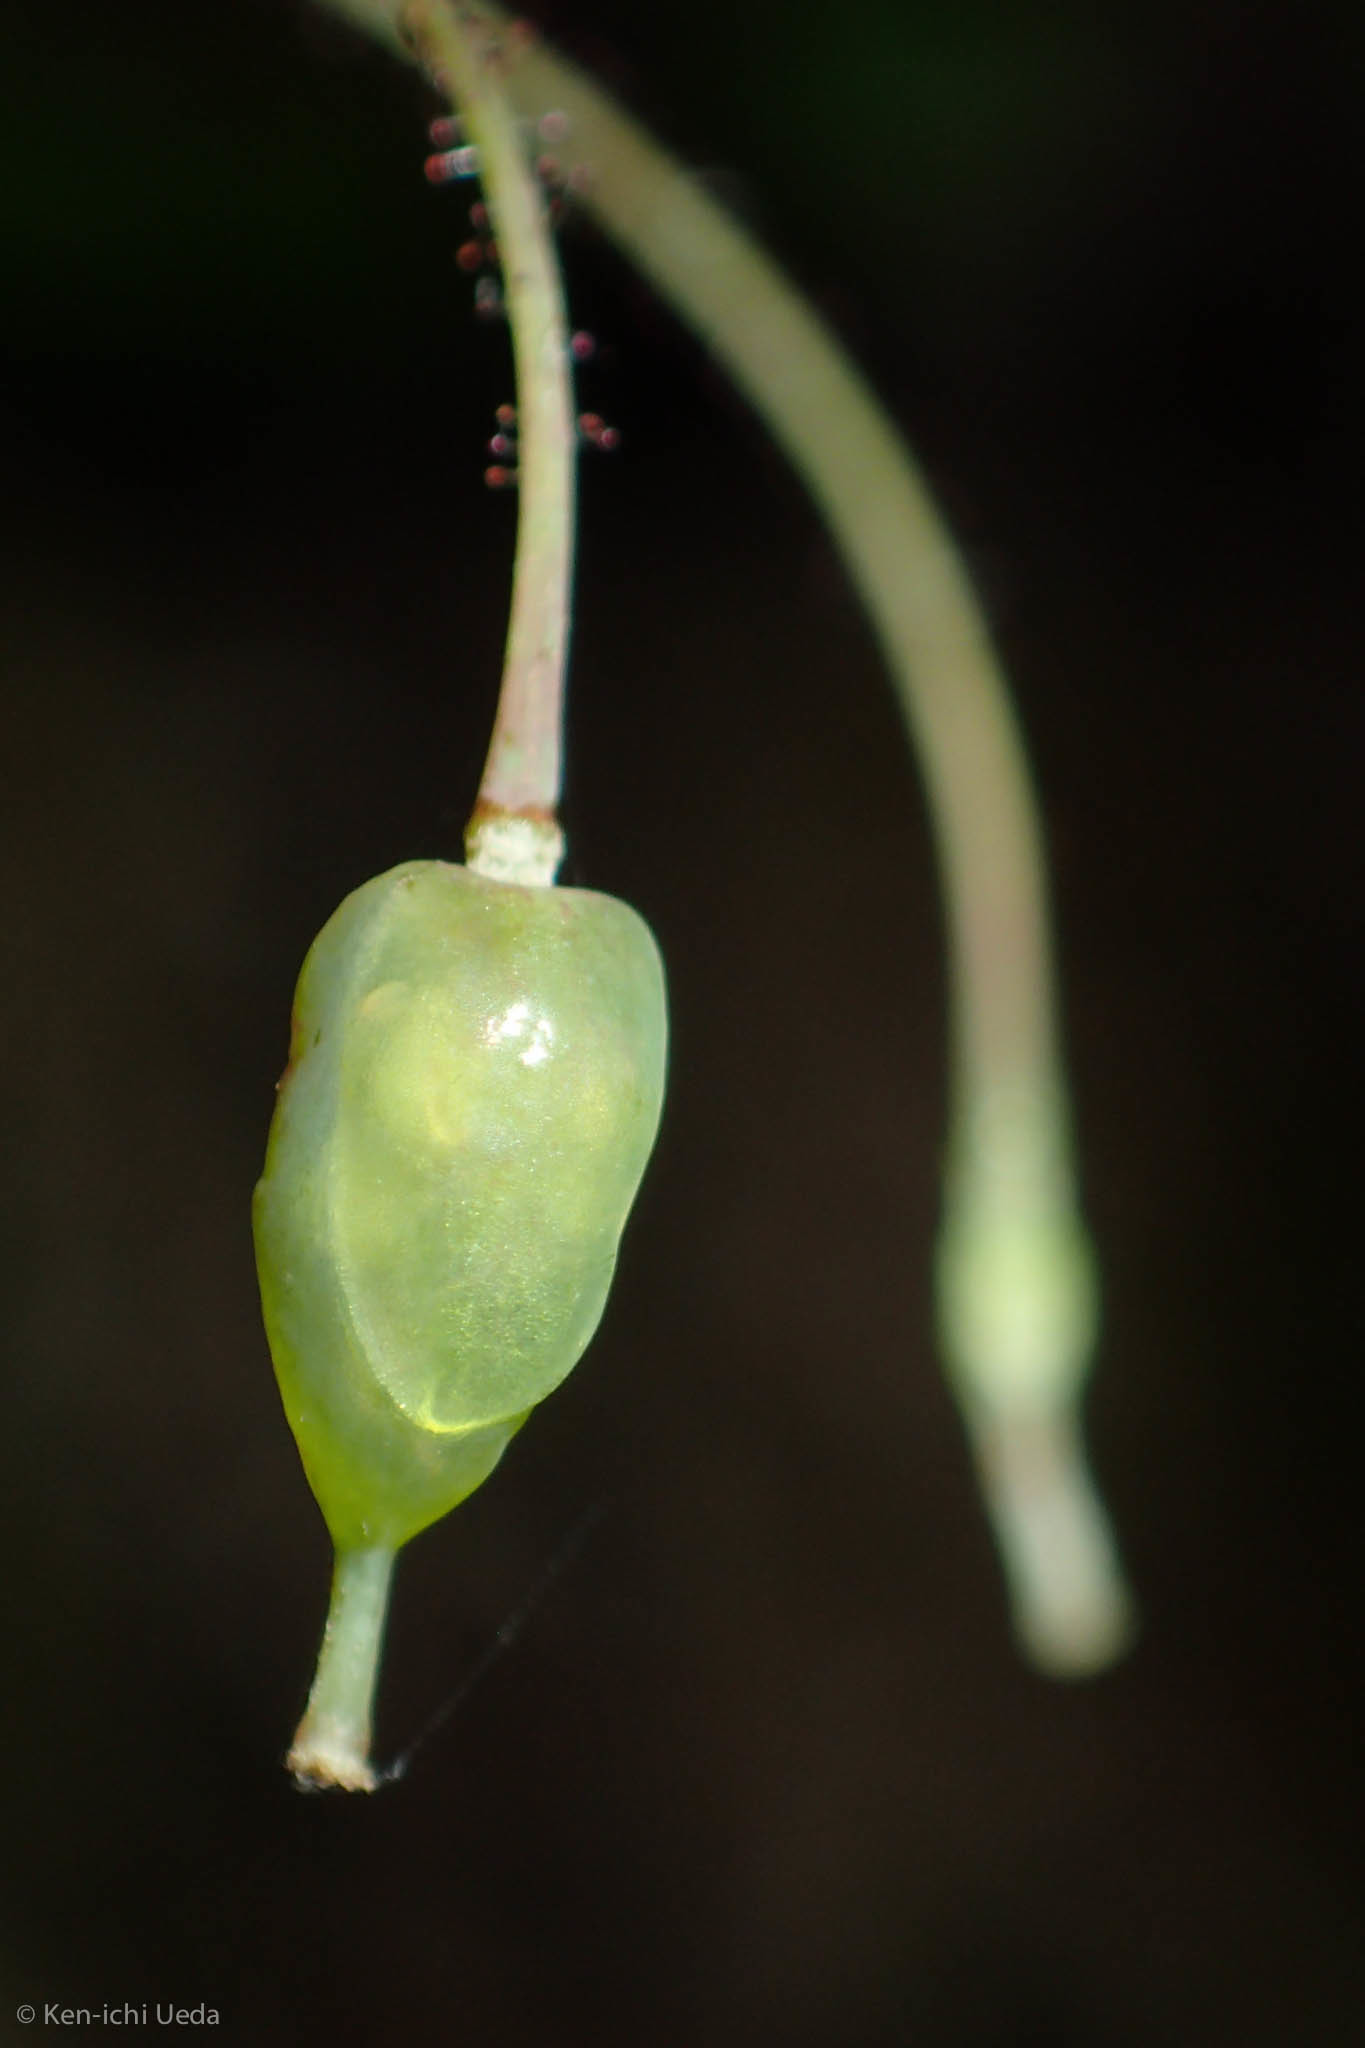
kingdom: Plantae
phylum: Tracheophyta
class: Magnoliopsida
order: Ranunculales
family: Berberidaceae
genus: Vancouveria
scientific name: Vancouveria planipetala
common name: Redwood-ivy
